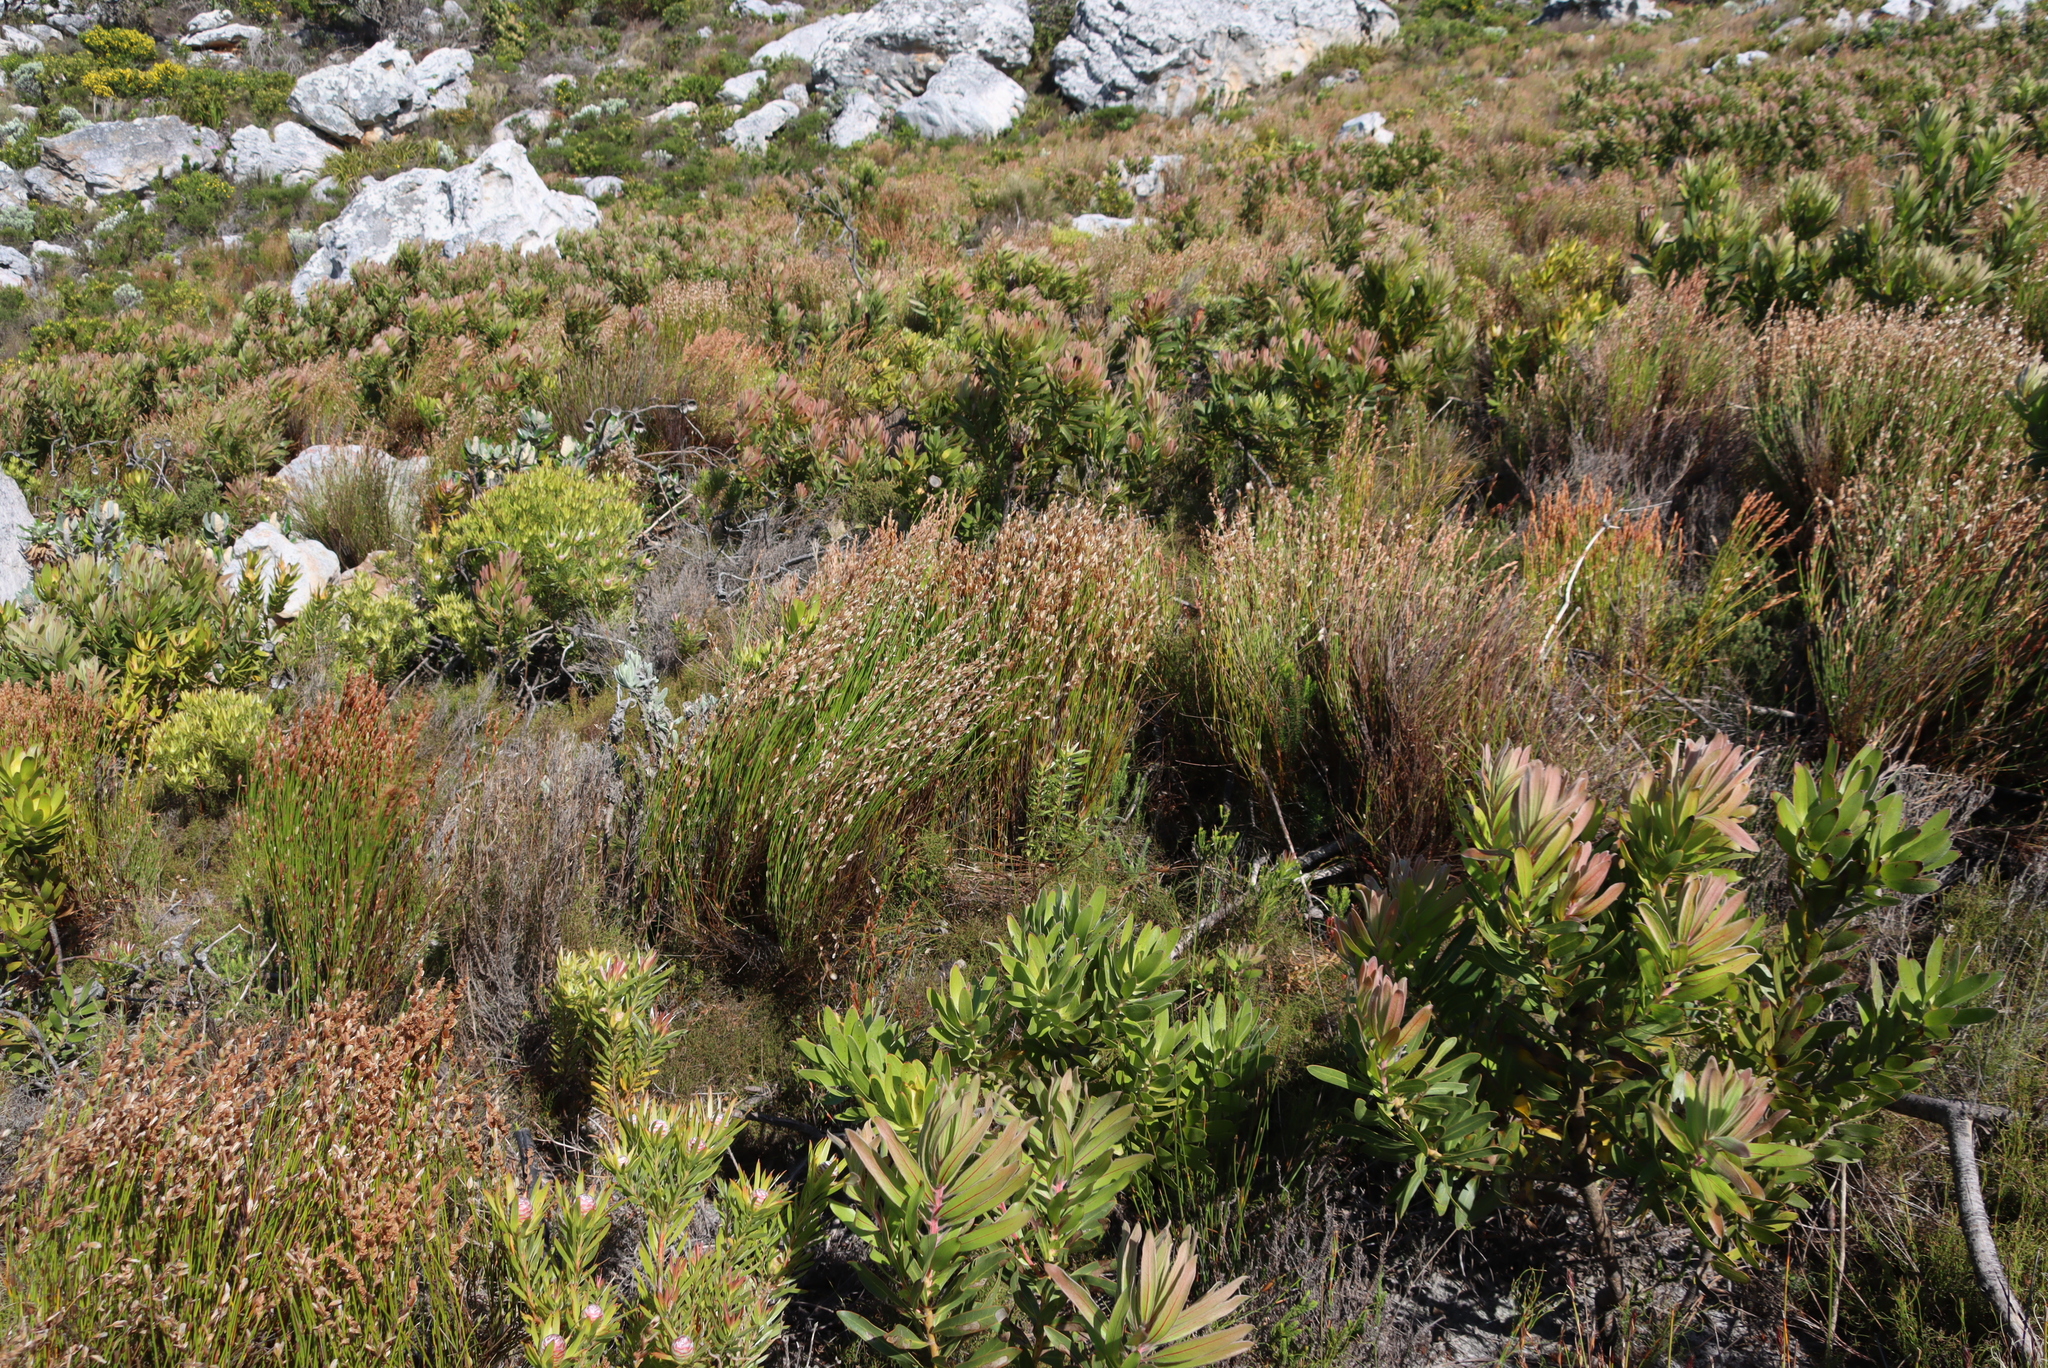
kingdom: Plantae
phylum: Tracheophyta
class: Magnoliopsida
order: Proteales
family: Proteaceae
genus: Protea
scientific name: Protea lepidocarpodendron
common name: Black-bearded protea
